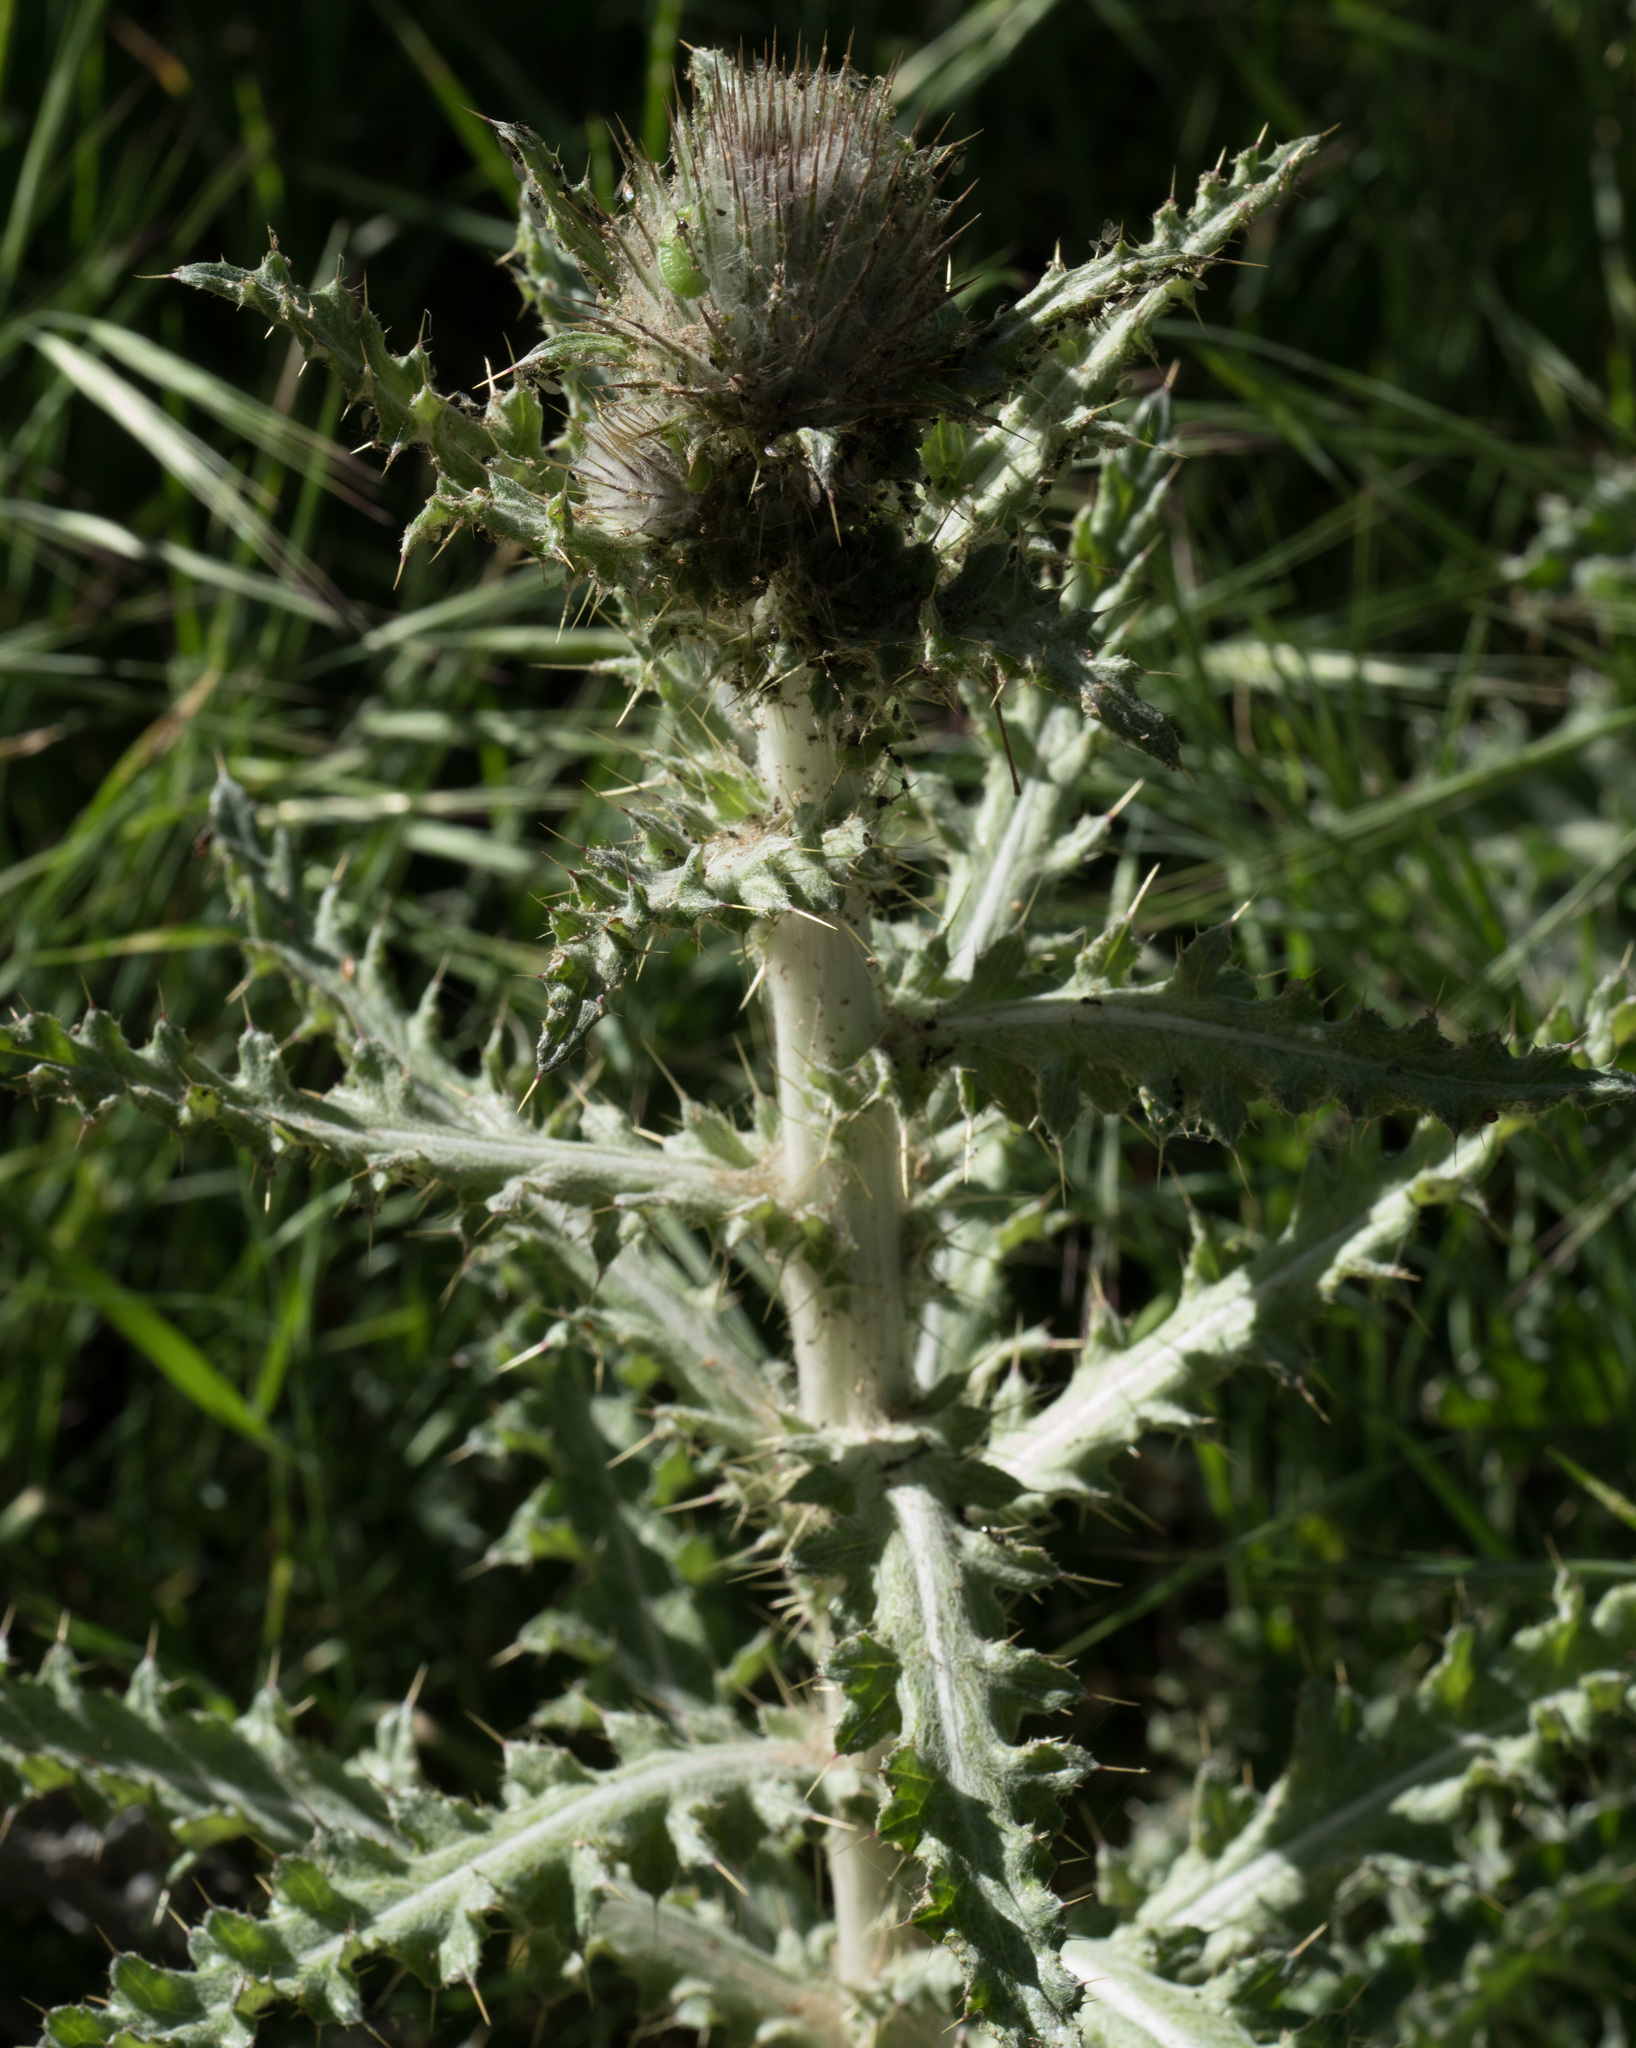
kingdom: Plantae
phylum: Tracheophyta
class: Magnoliopsida
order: Asterales
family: Asteraceae
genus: Cirsium
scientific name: Cirsium occidentale
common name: Western thistle
